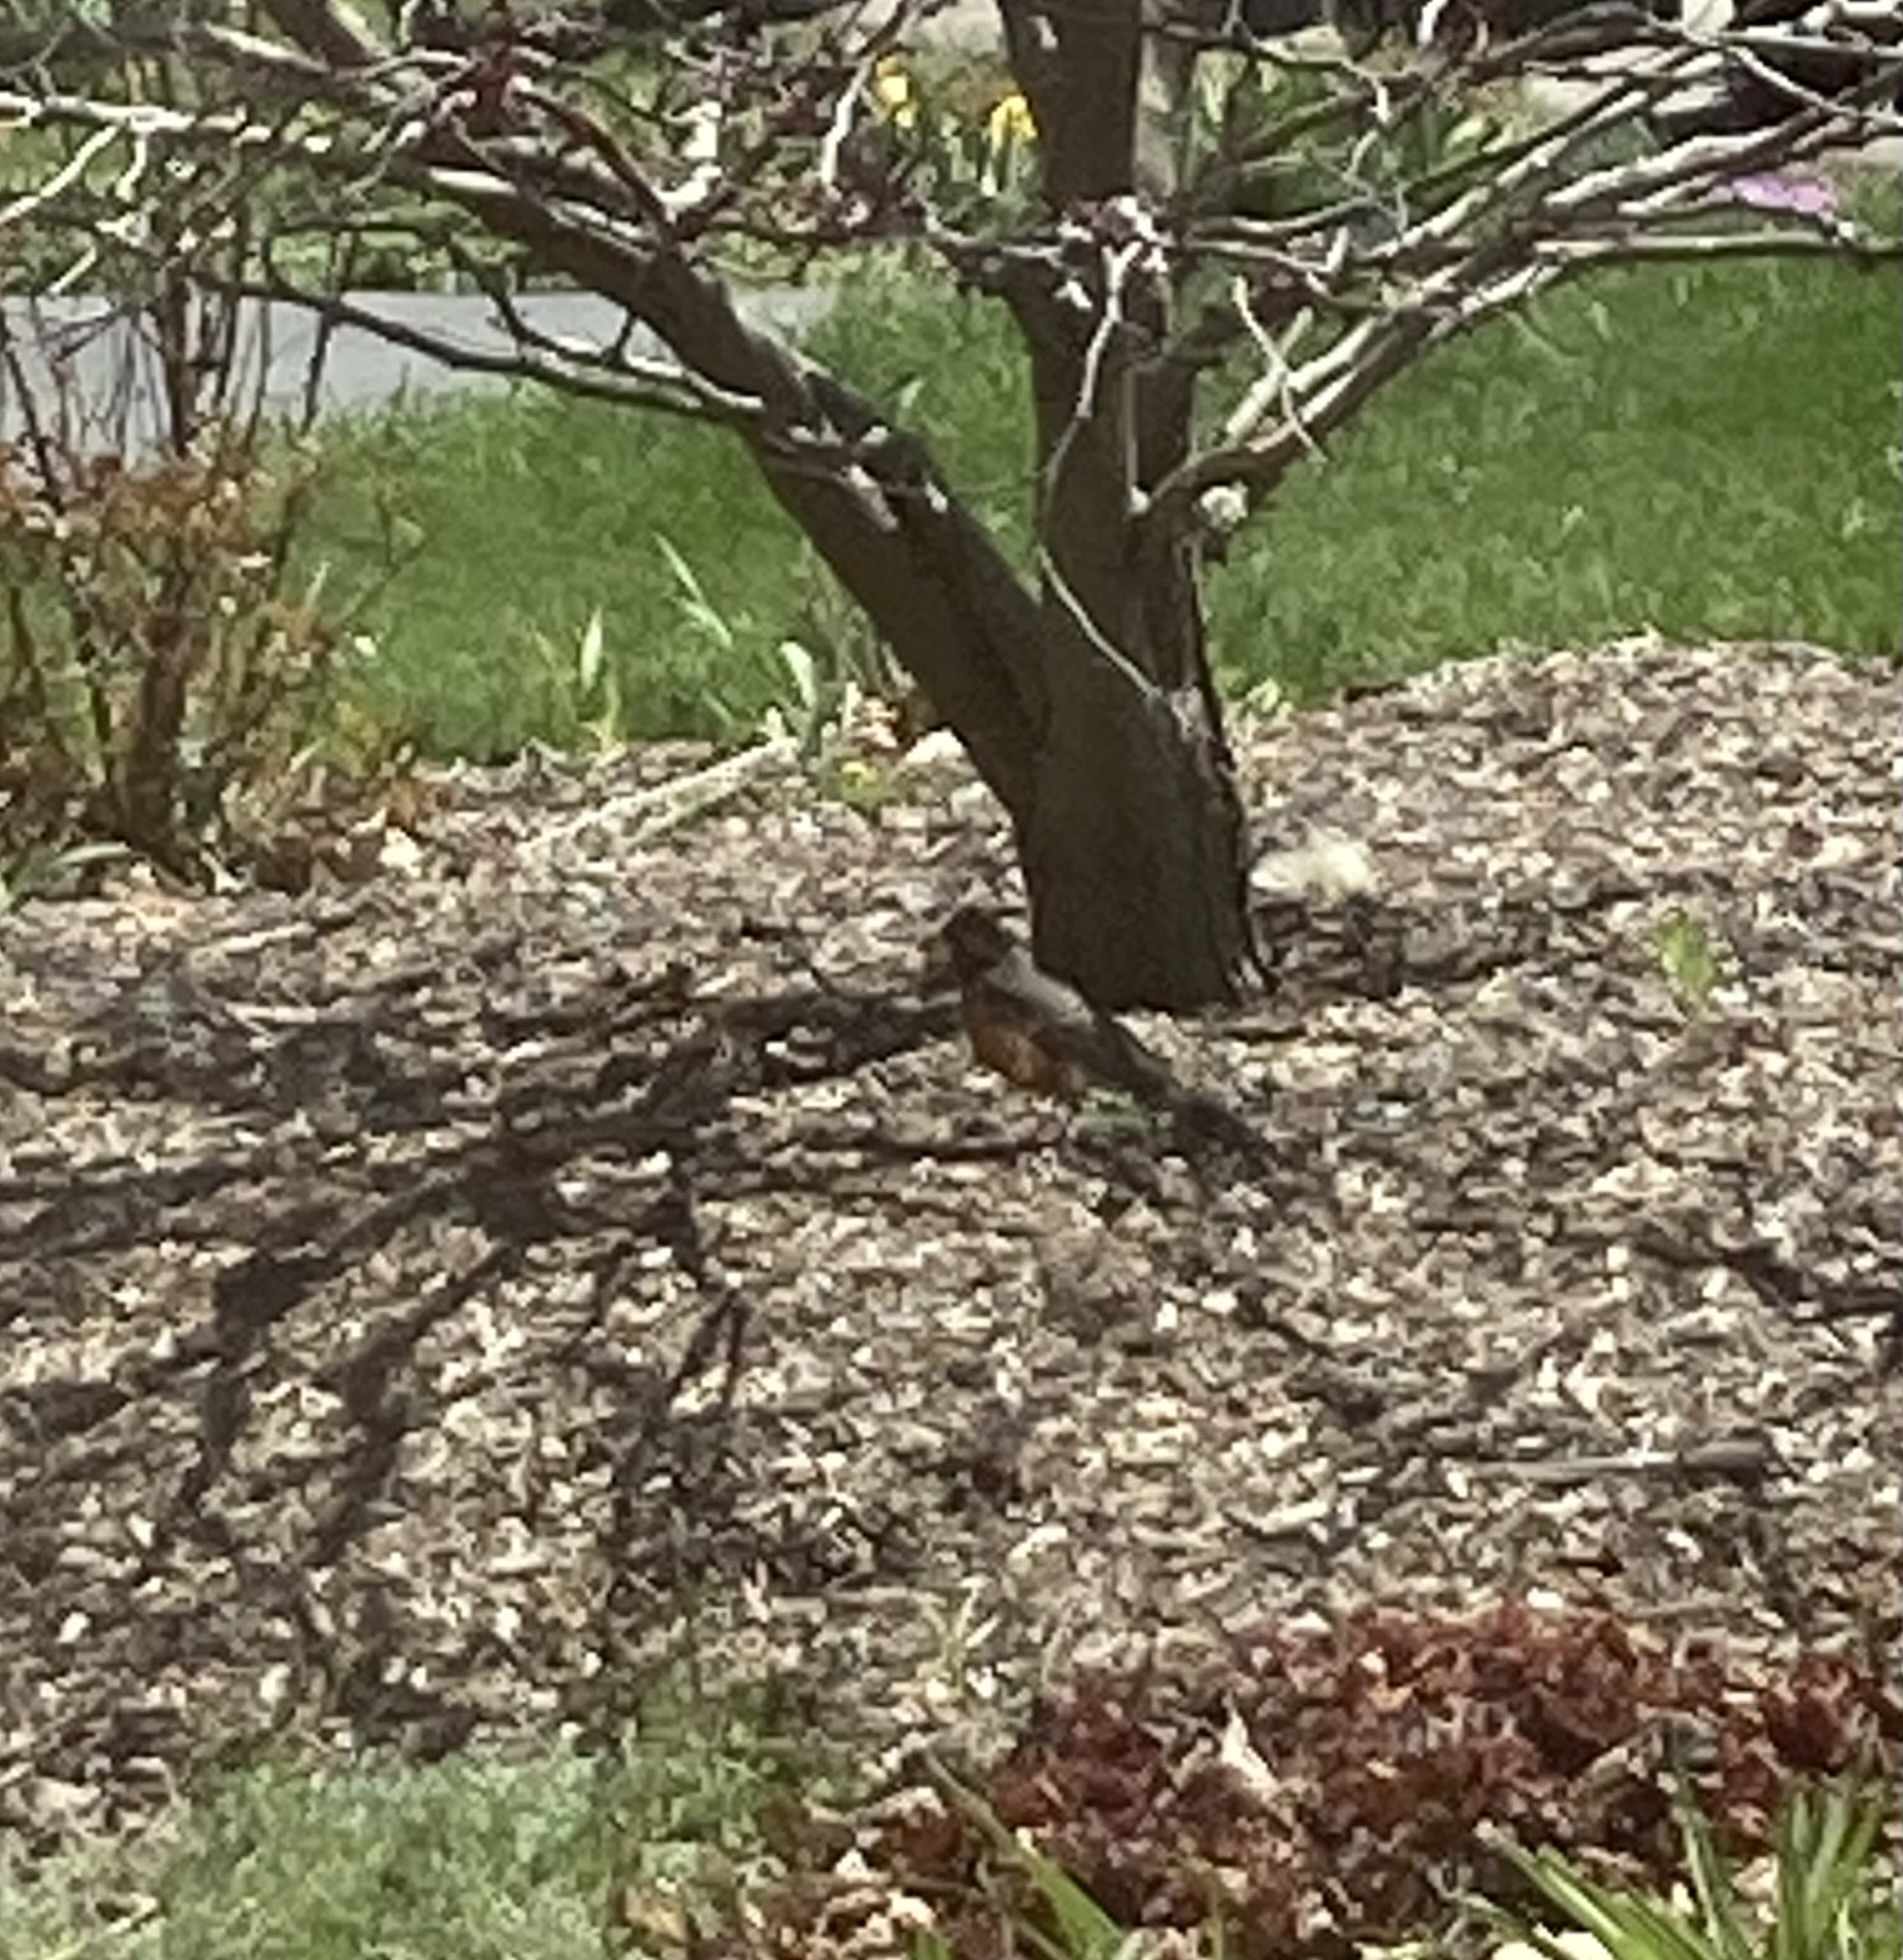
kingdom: Animalia
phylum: Chordata
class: Aves
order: Passeriformes
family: Turdidae
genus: Turdus
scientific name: Turdus migratorius
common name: American robin
